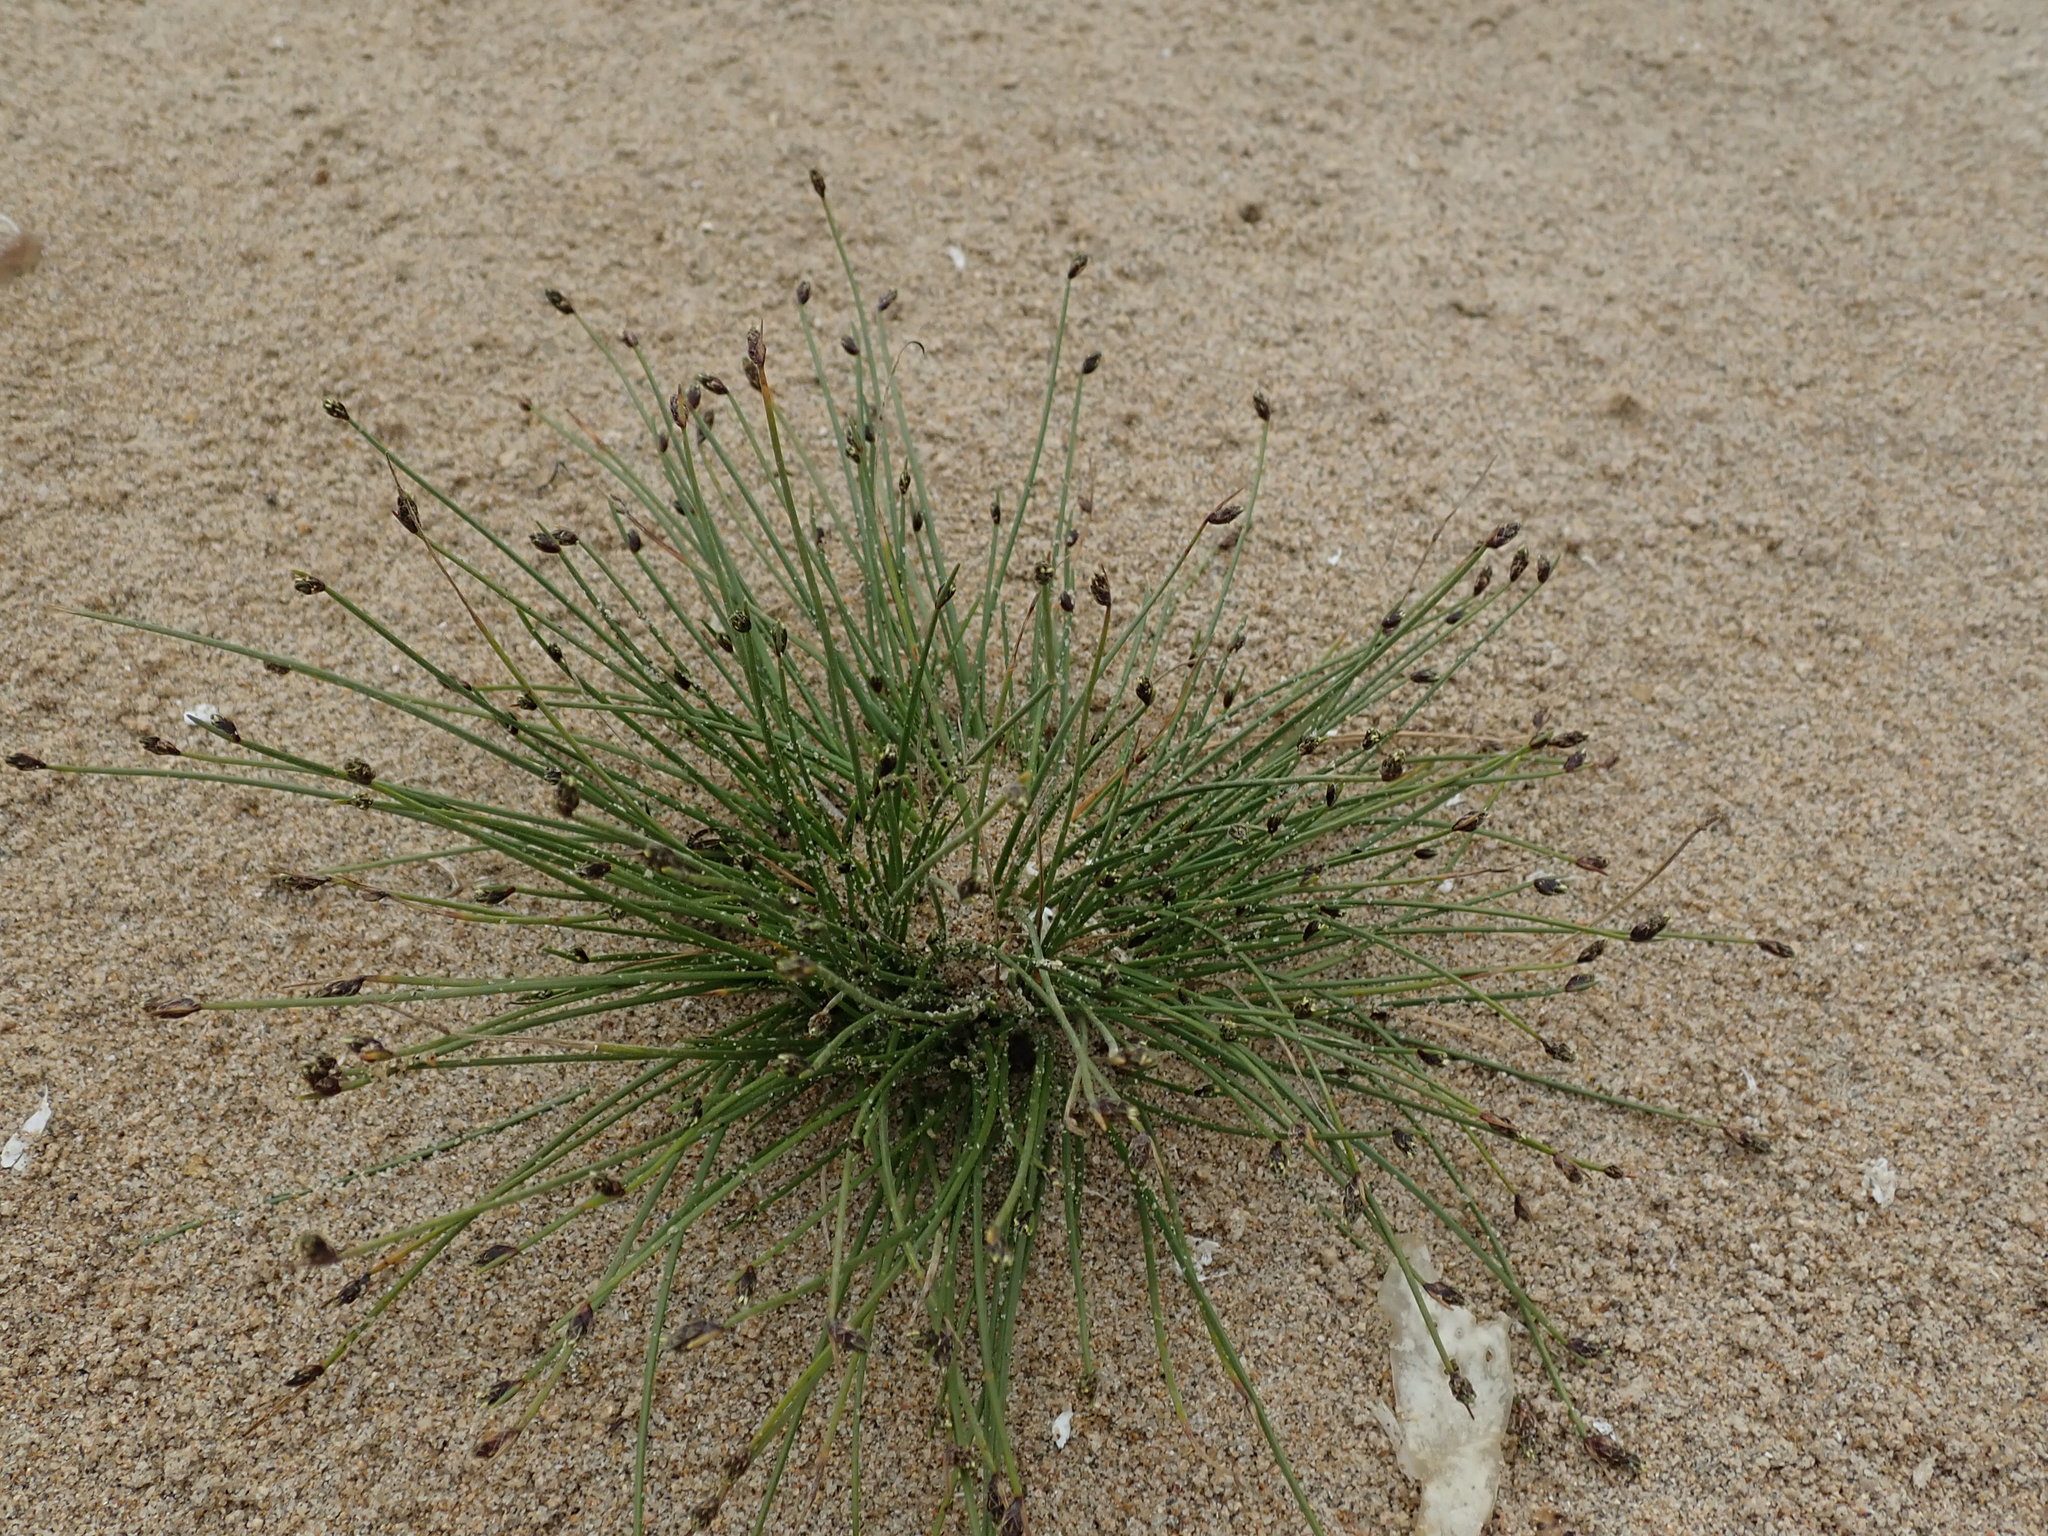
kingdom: Plantae
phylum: Tracheophyta
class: Liliopsida
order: Poales
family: Cyperaceae
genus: Isolepis
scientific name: Isolepis cernua
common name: Slender club-rush
